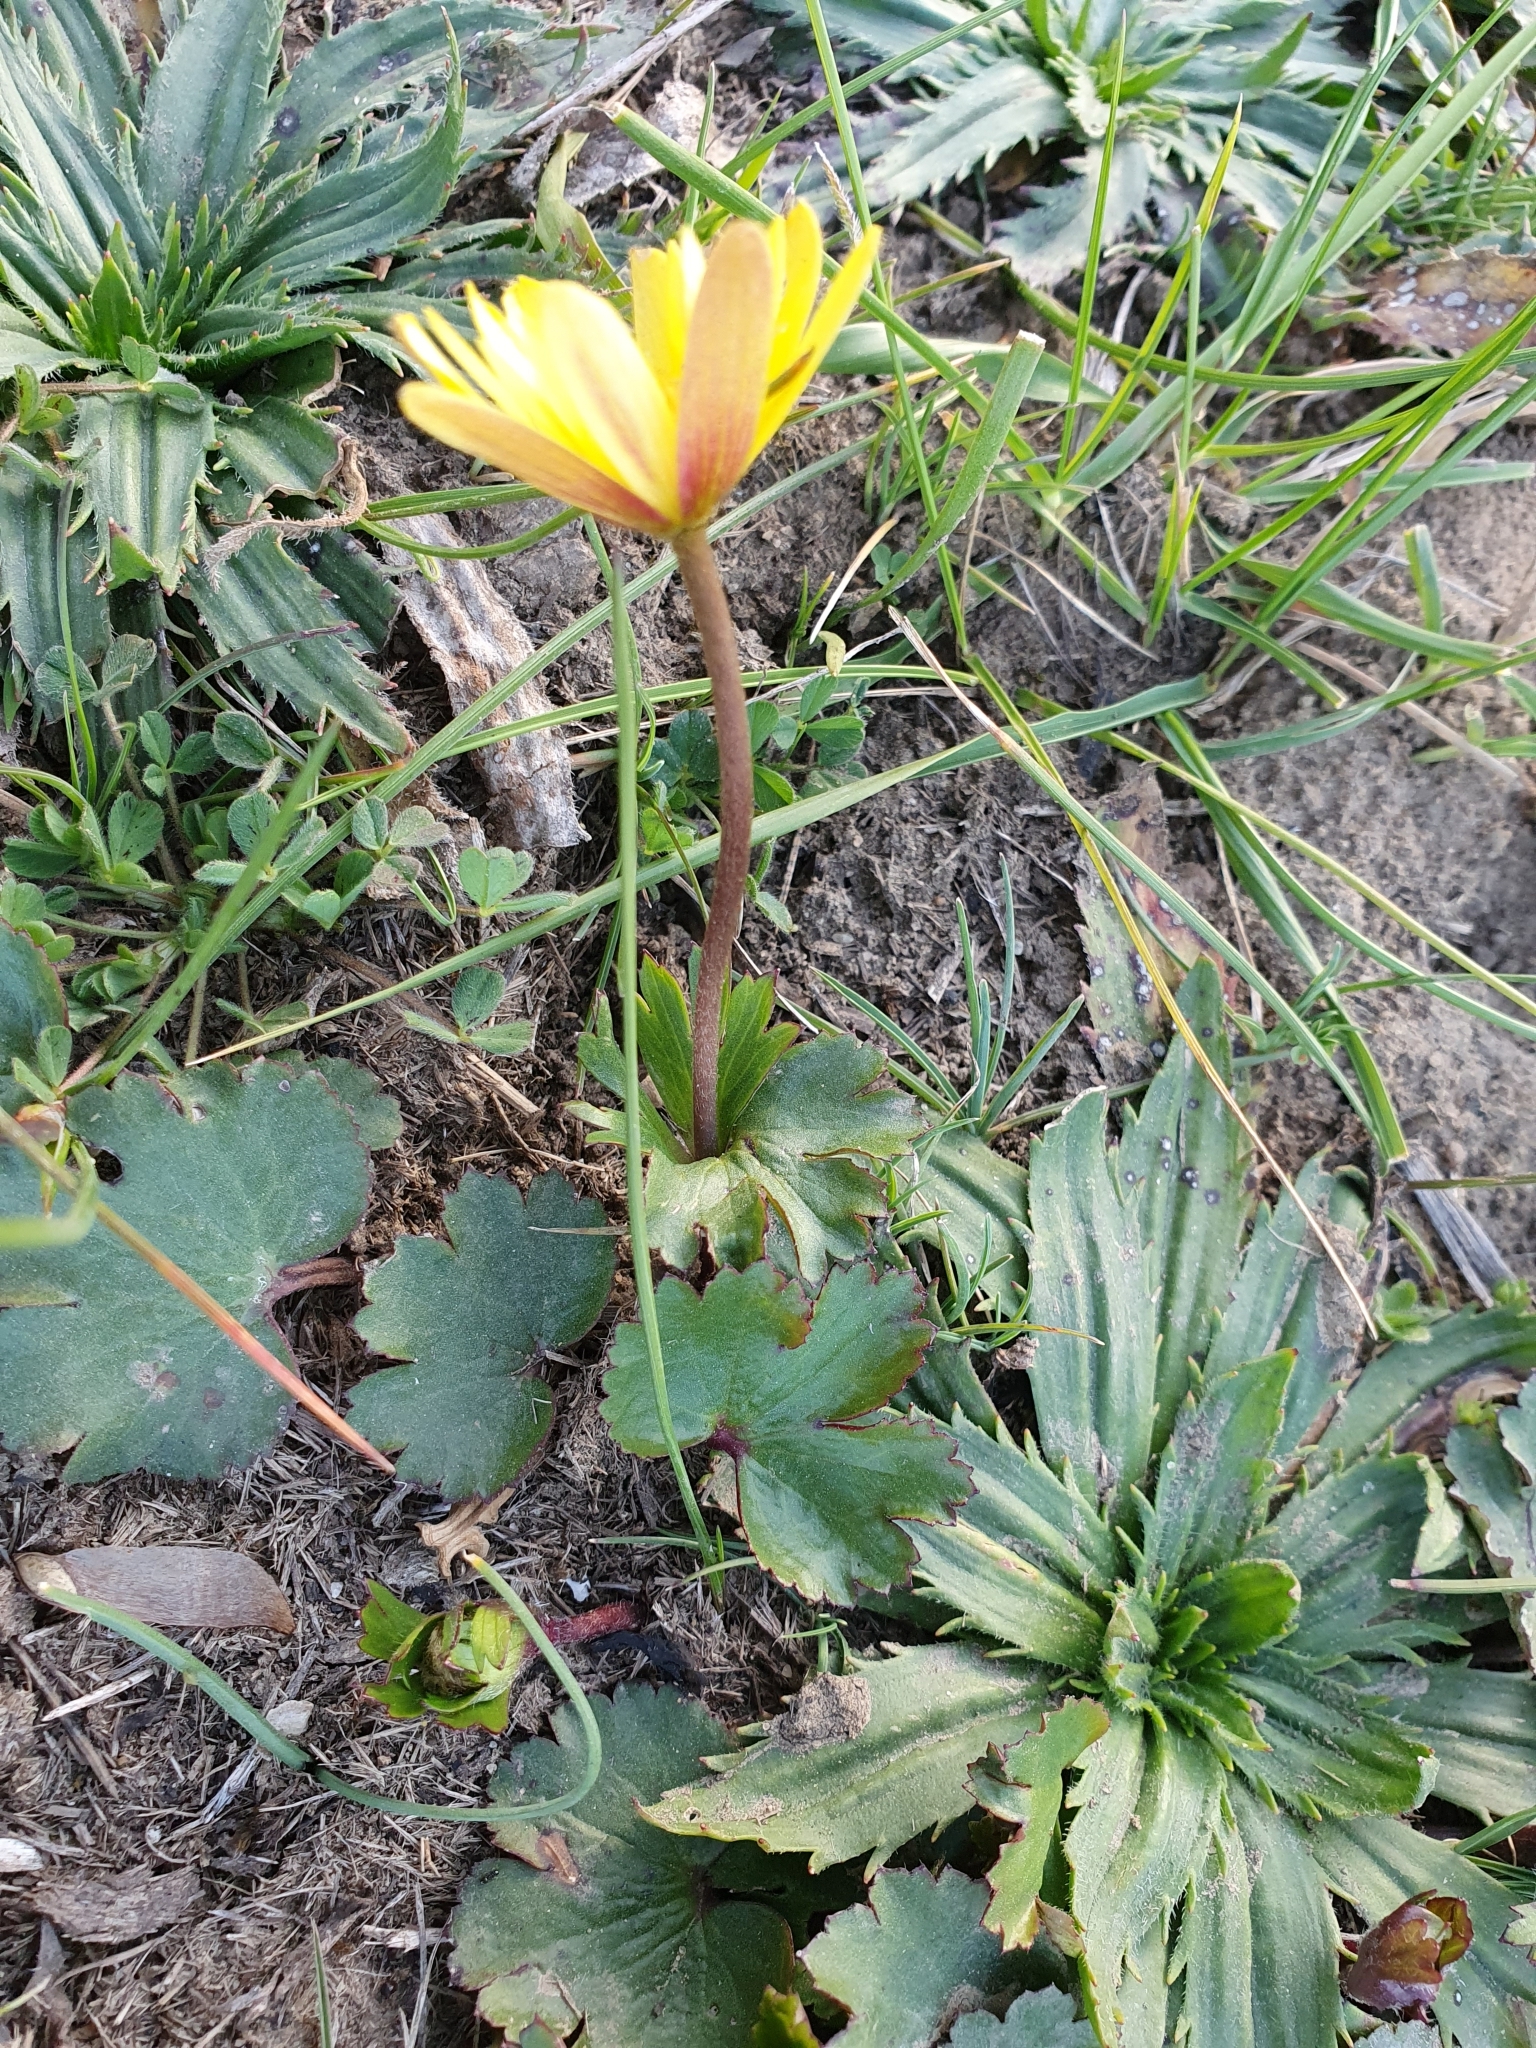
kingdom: Plantae
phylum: Tracheophyta
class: Magnoliopsida
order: Ranunculales
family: Ranunculaceae
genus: Anemone
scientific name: Anemone palmata
